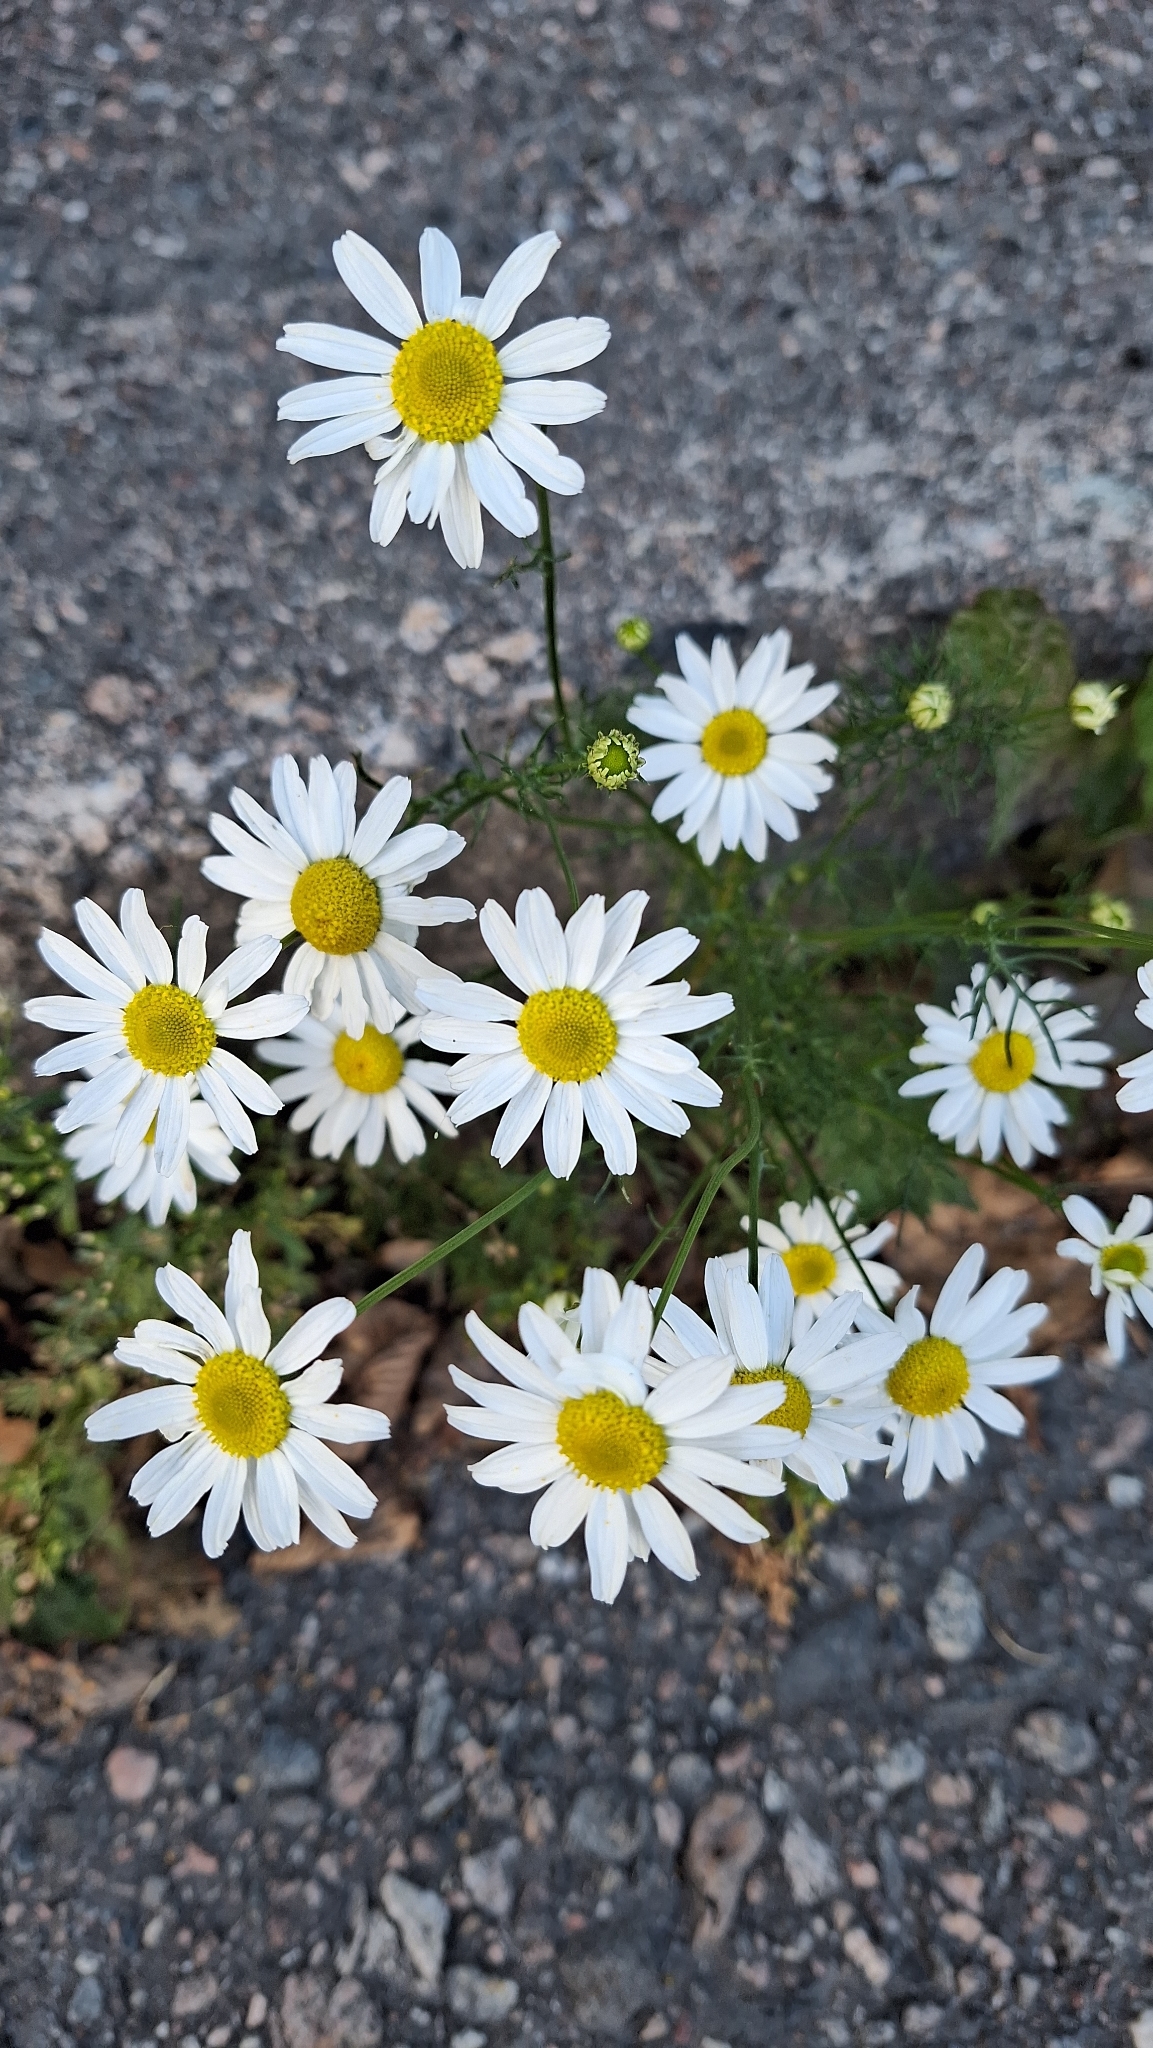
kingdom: Plantae
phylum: Tracheophyta
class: Magnoliopsida
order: Asterales
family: Asteraceae
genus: Tripleurospermum
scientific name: Tripleurospermum inodorum
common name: Scentless mayweed
